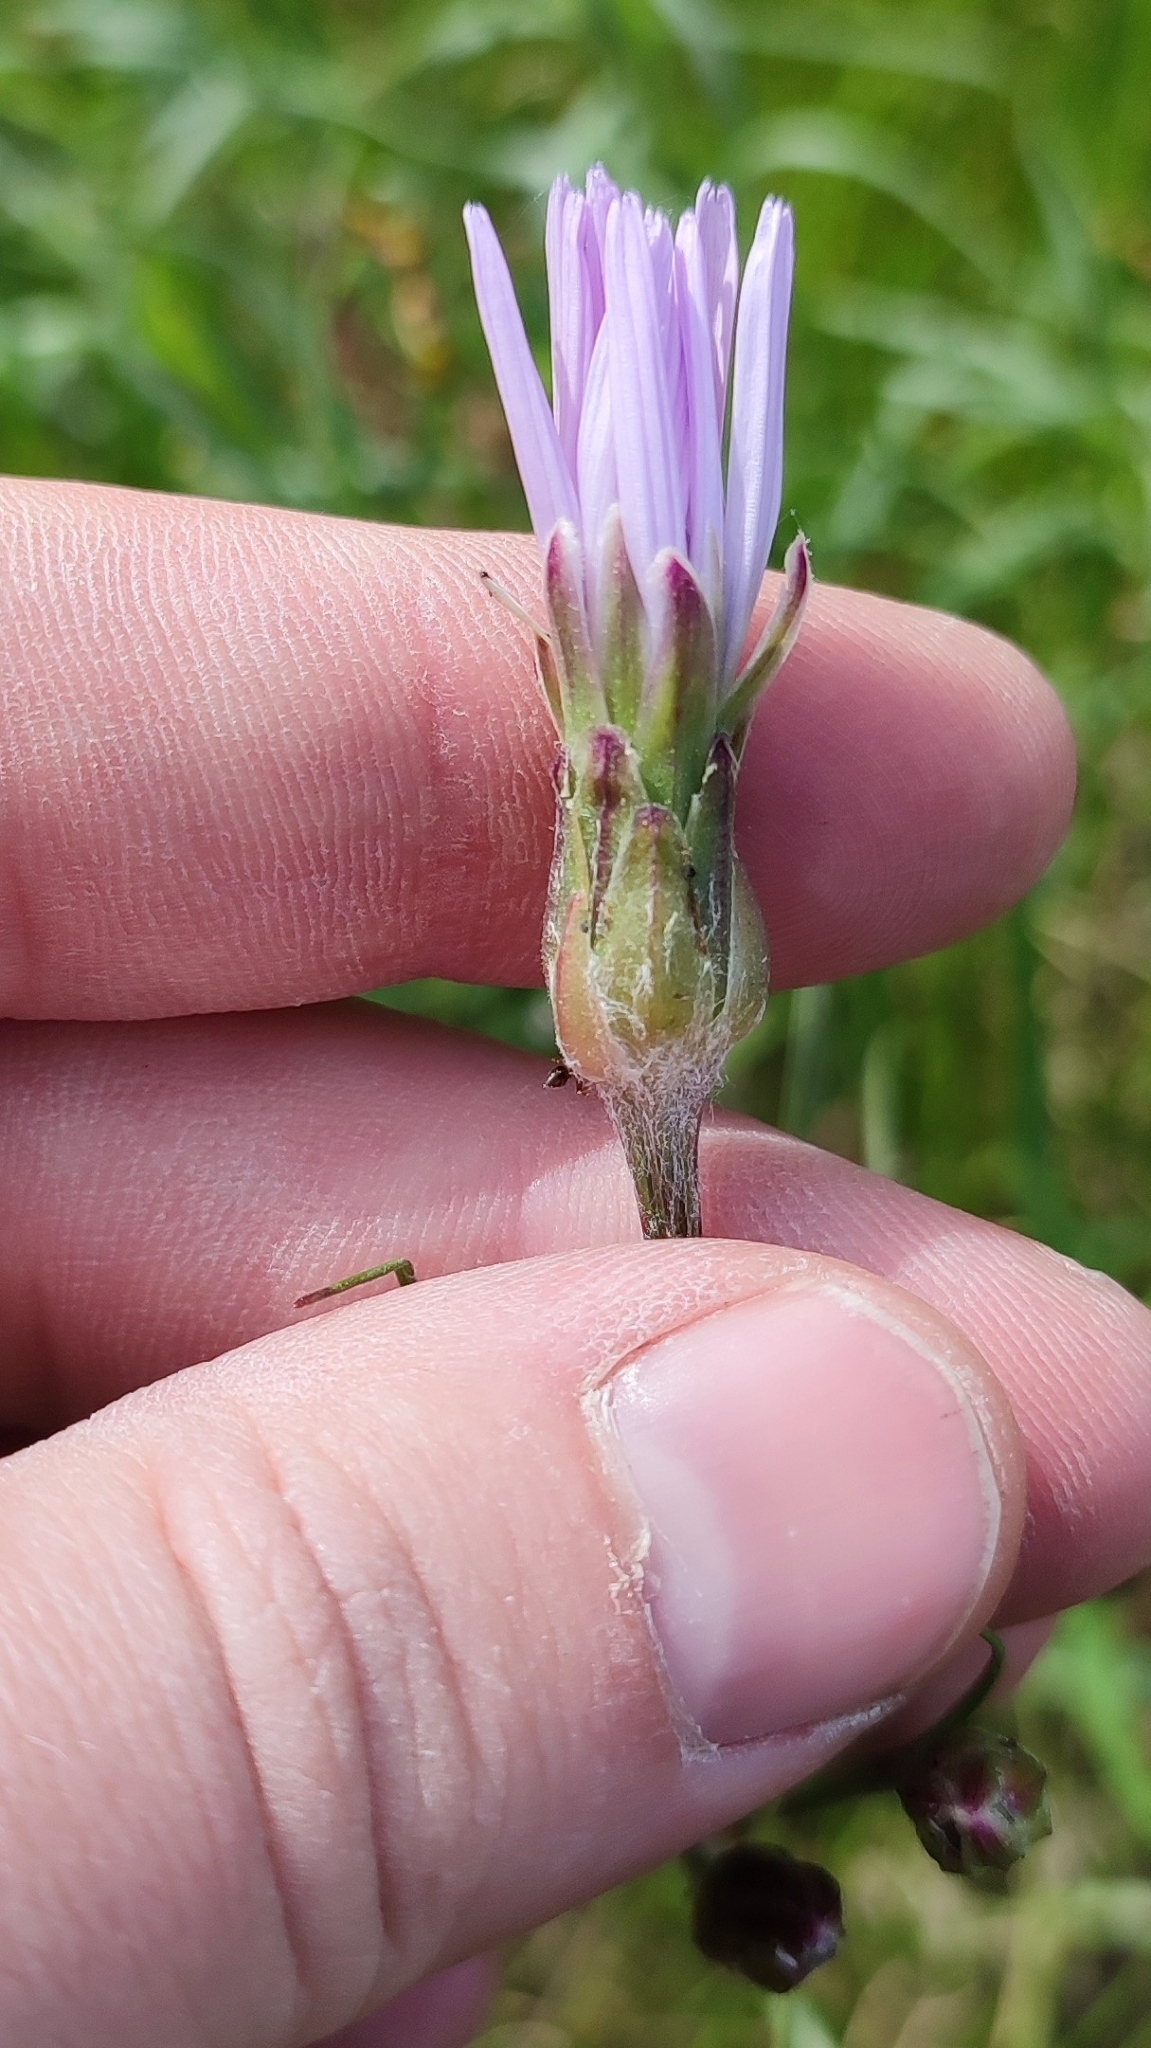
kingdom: Plantae
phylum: Tracheophyta
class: Magnoliopsida
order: Asterales
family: Asteraceae
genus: Scorzonera
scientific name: Scorzonera purpurea
